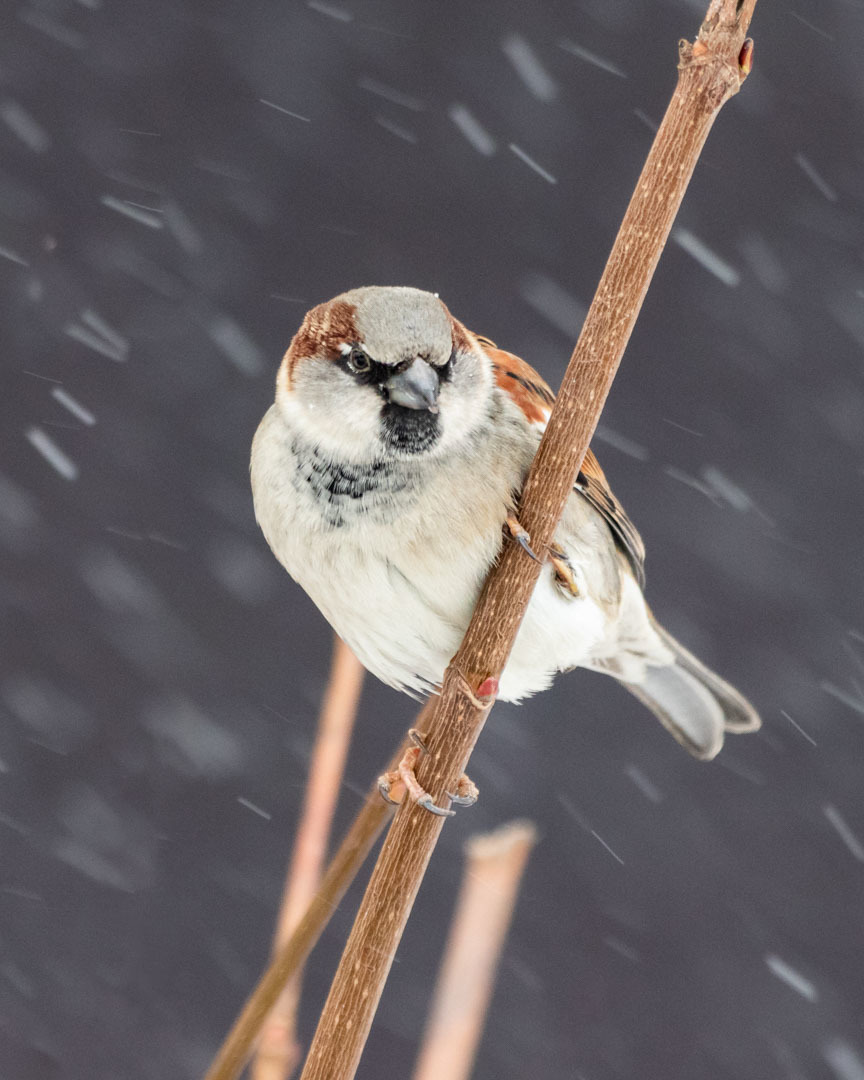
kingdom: Animalia
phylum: Chordata
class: Aves
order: Passeriformes
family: Passeridae
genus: Passer
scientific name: Passer domesticus
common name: House sparrow
